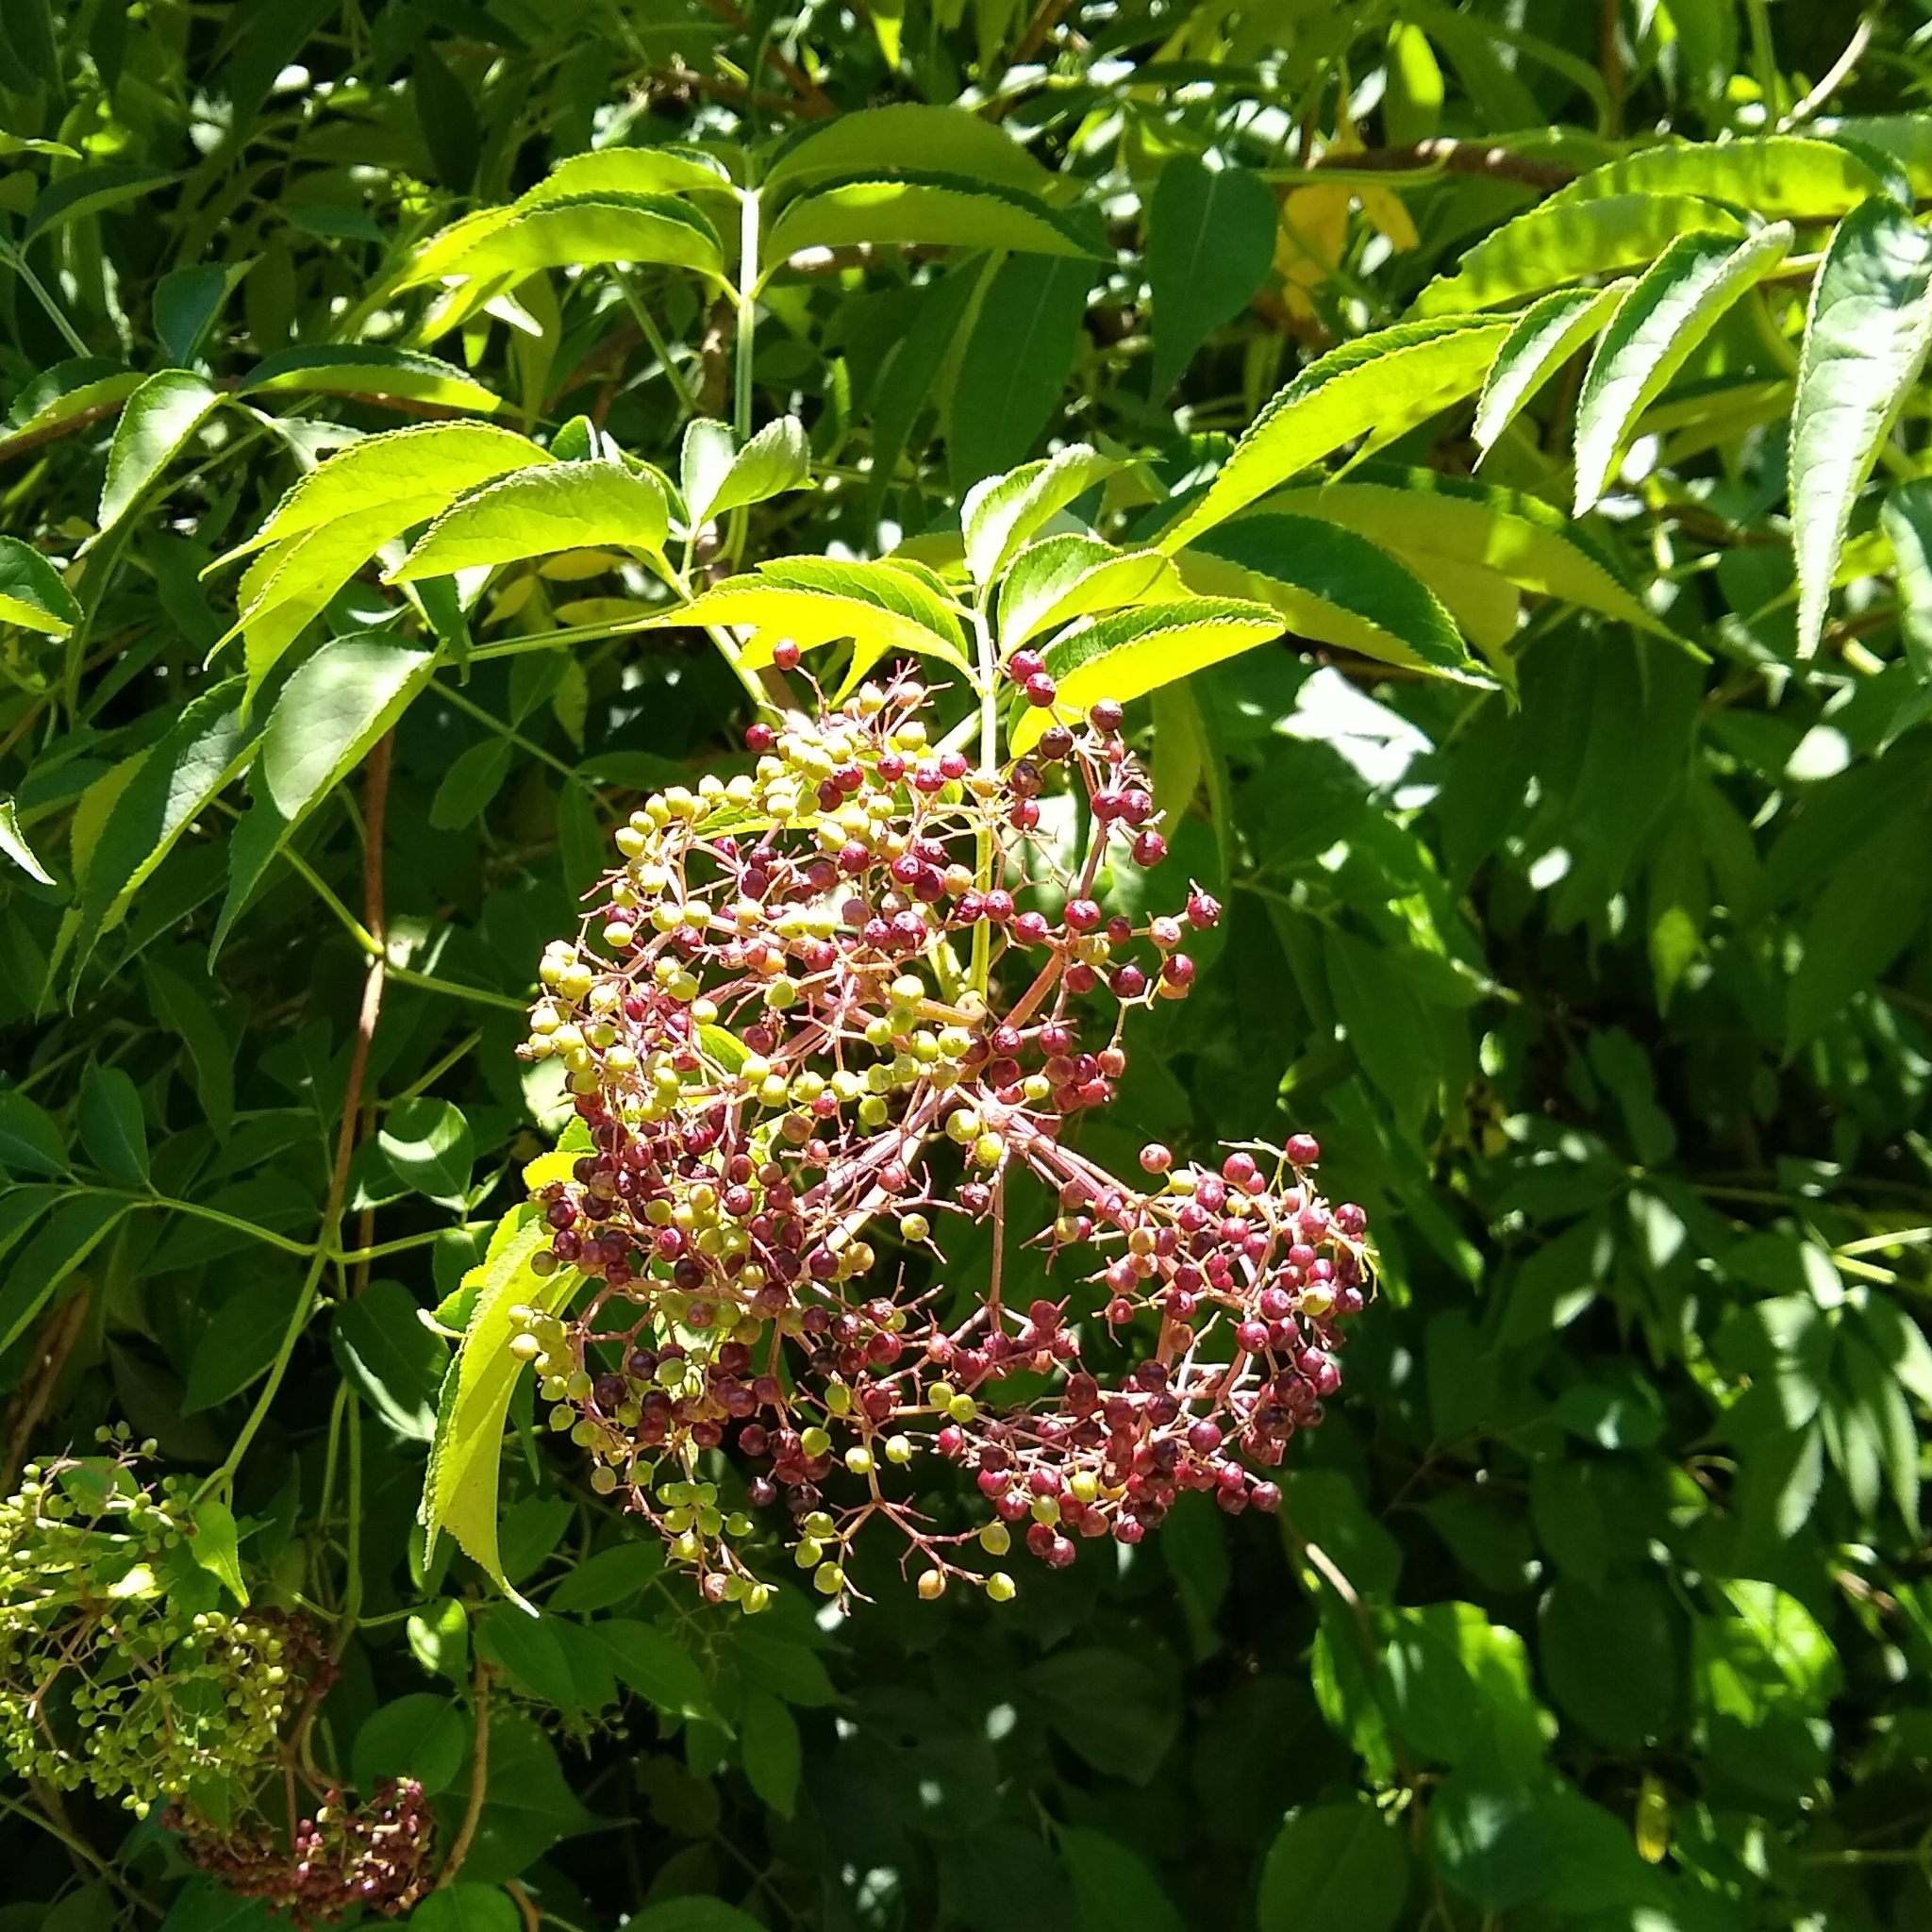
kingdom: Plantae
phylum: Tracheophyta
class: Magnoliopsida
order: Dipsacales
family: Viburnaceae
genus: Sambucus
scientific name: Sambucus canadensis
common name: American elder
